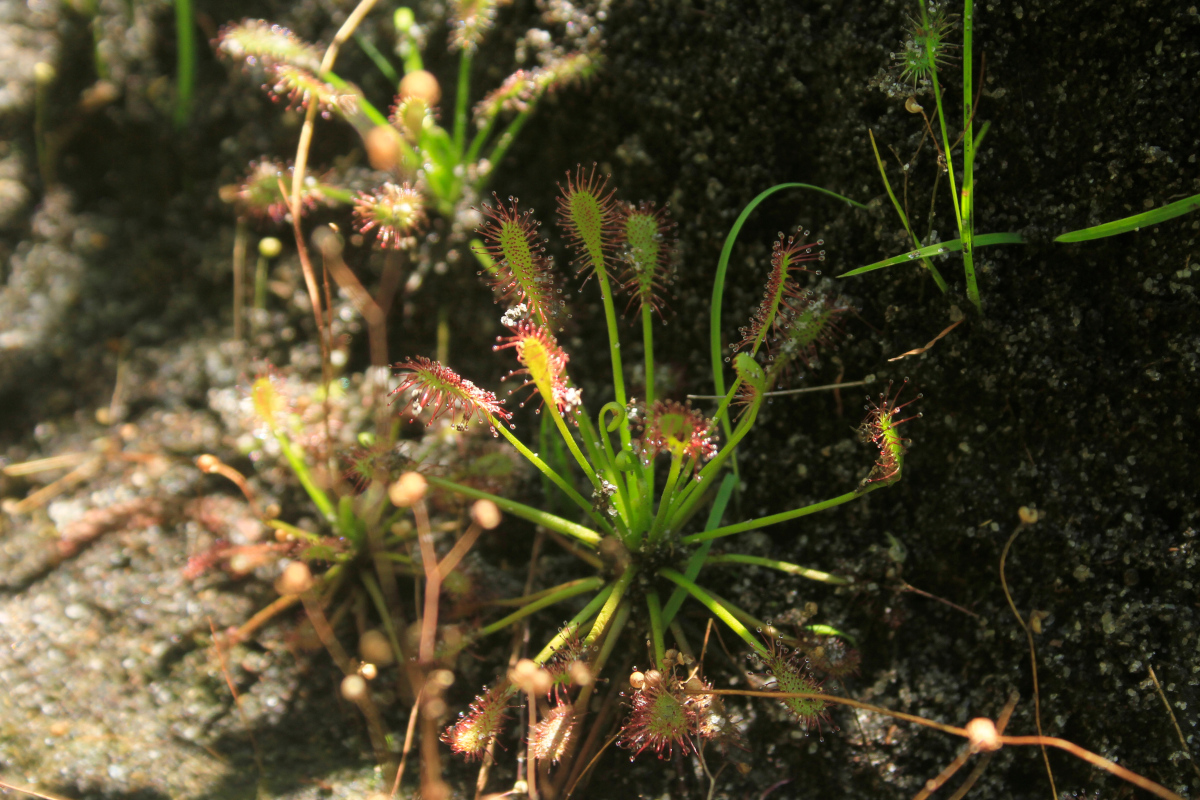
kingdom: Plantae
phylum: Tracheophyta
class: Magnoliopsida
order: Caryophyllales
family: Droseraceae
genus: Drosera
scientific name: Drosera intermedia
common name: Oblong-leaved sundew
